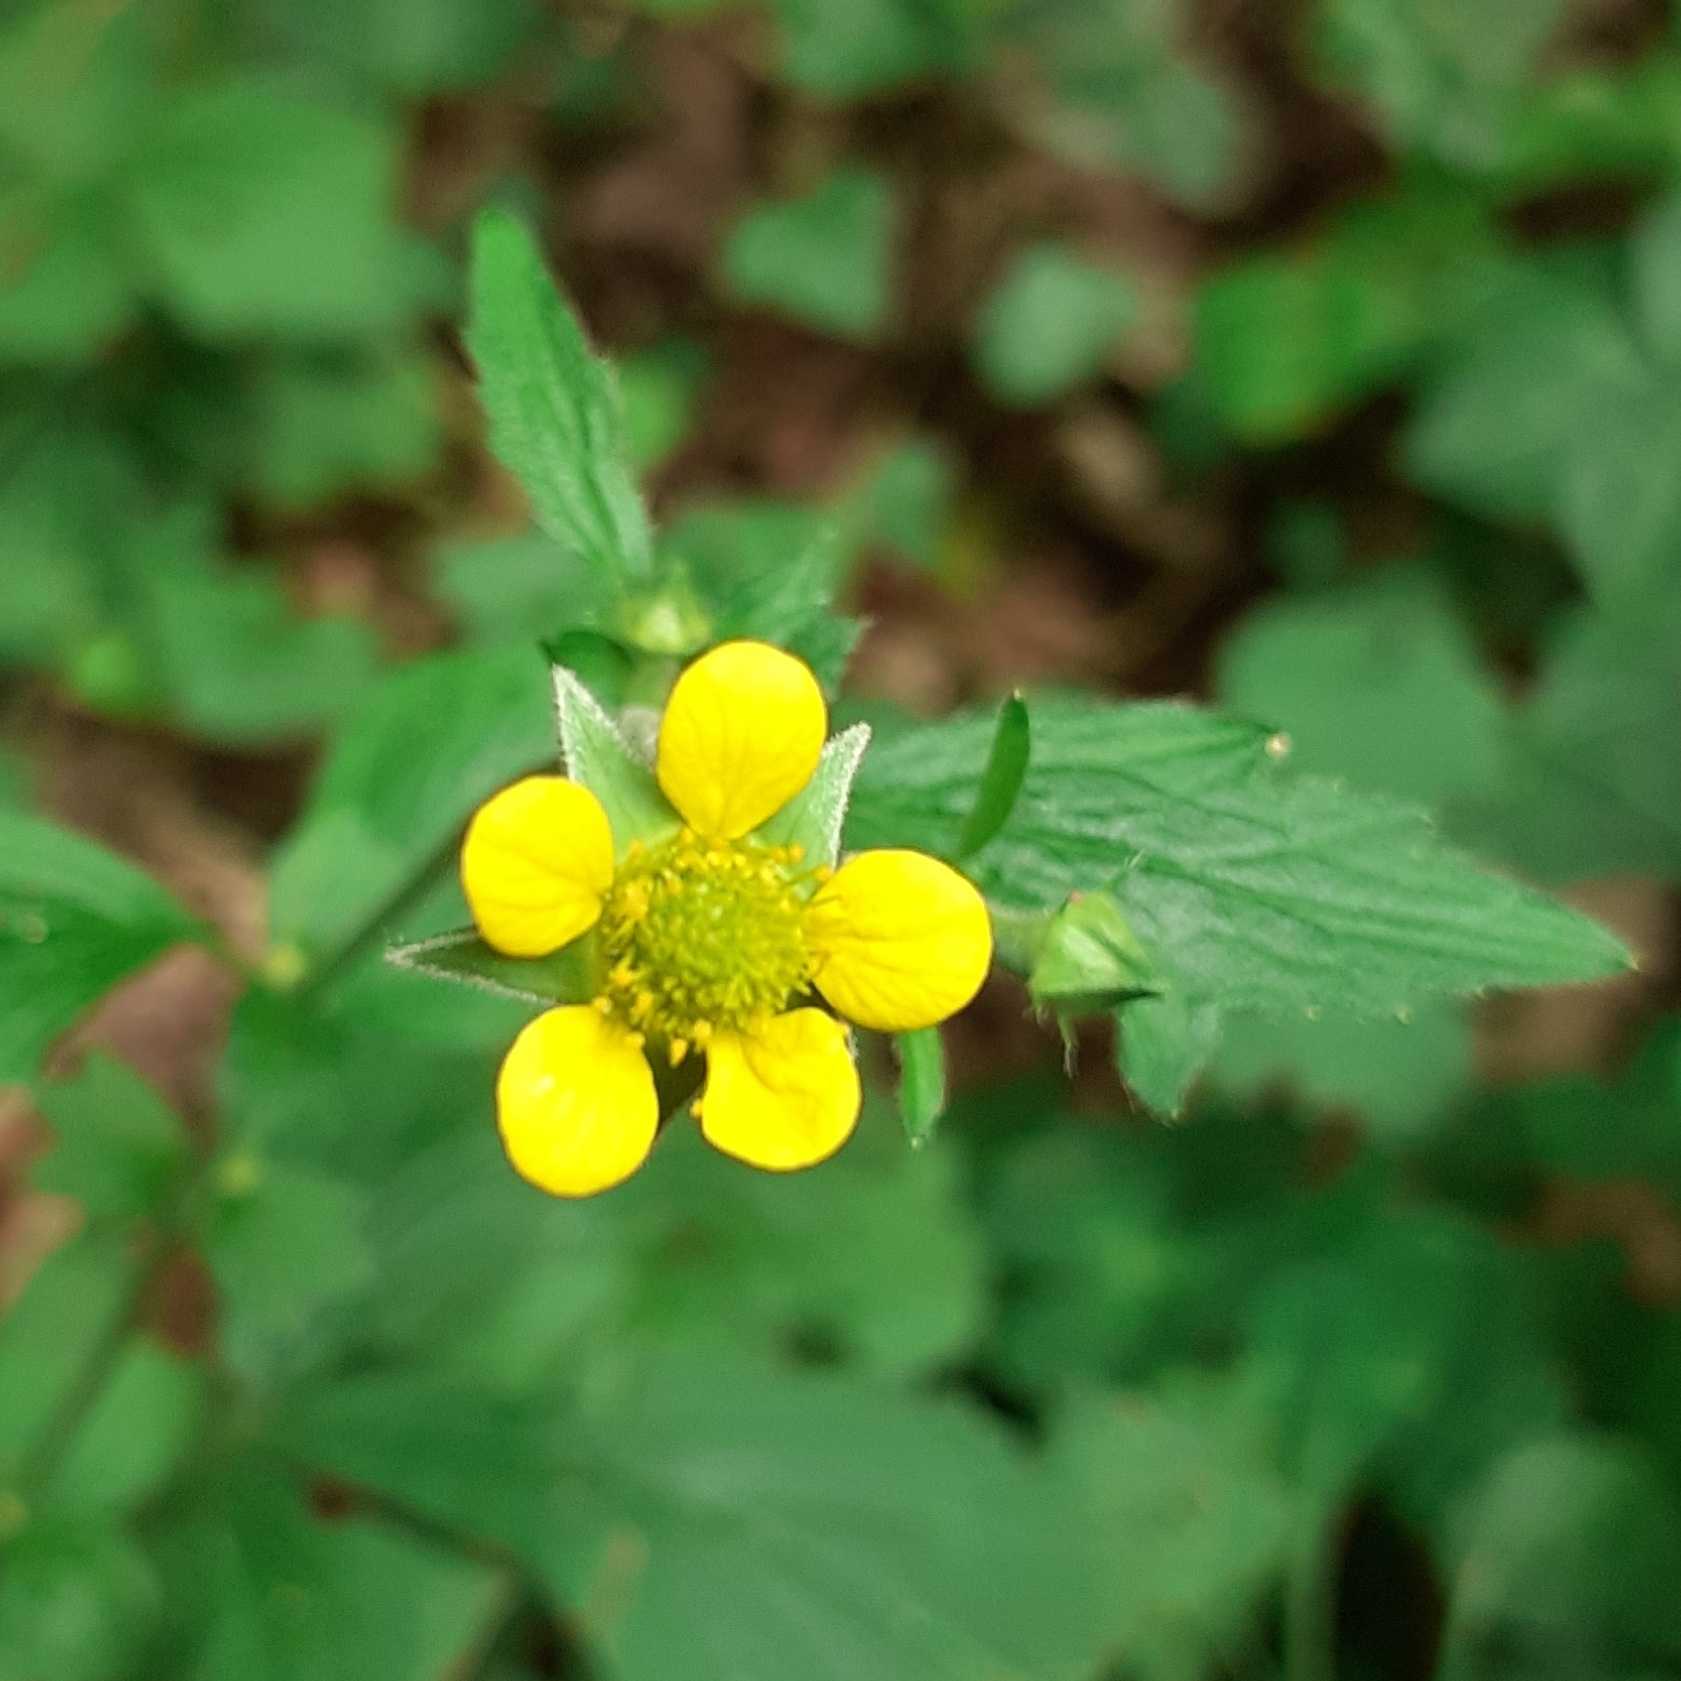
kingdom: Plantae
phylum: Tracheophyta
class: Magnoliopsida
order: Rosales
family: Rosaceae
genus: Geum
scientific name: Geum urbanum
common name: Wood avens
